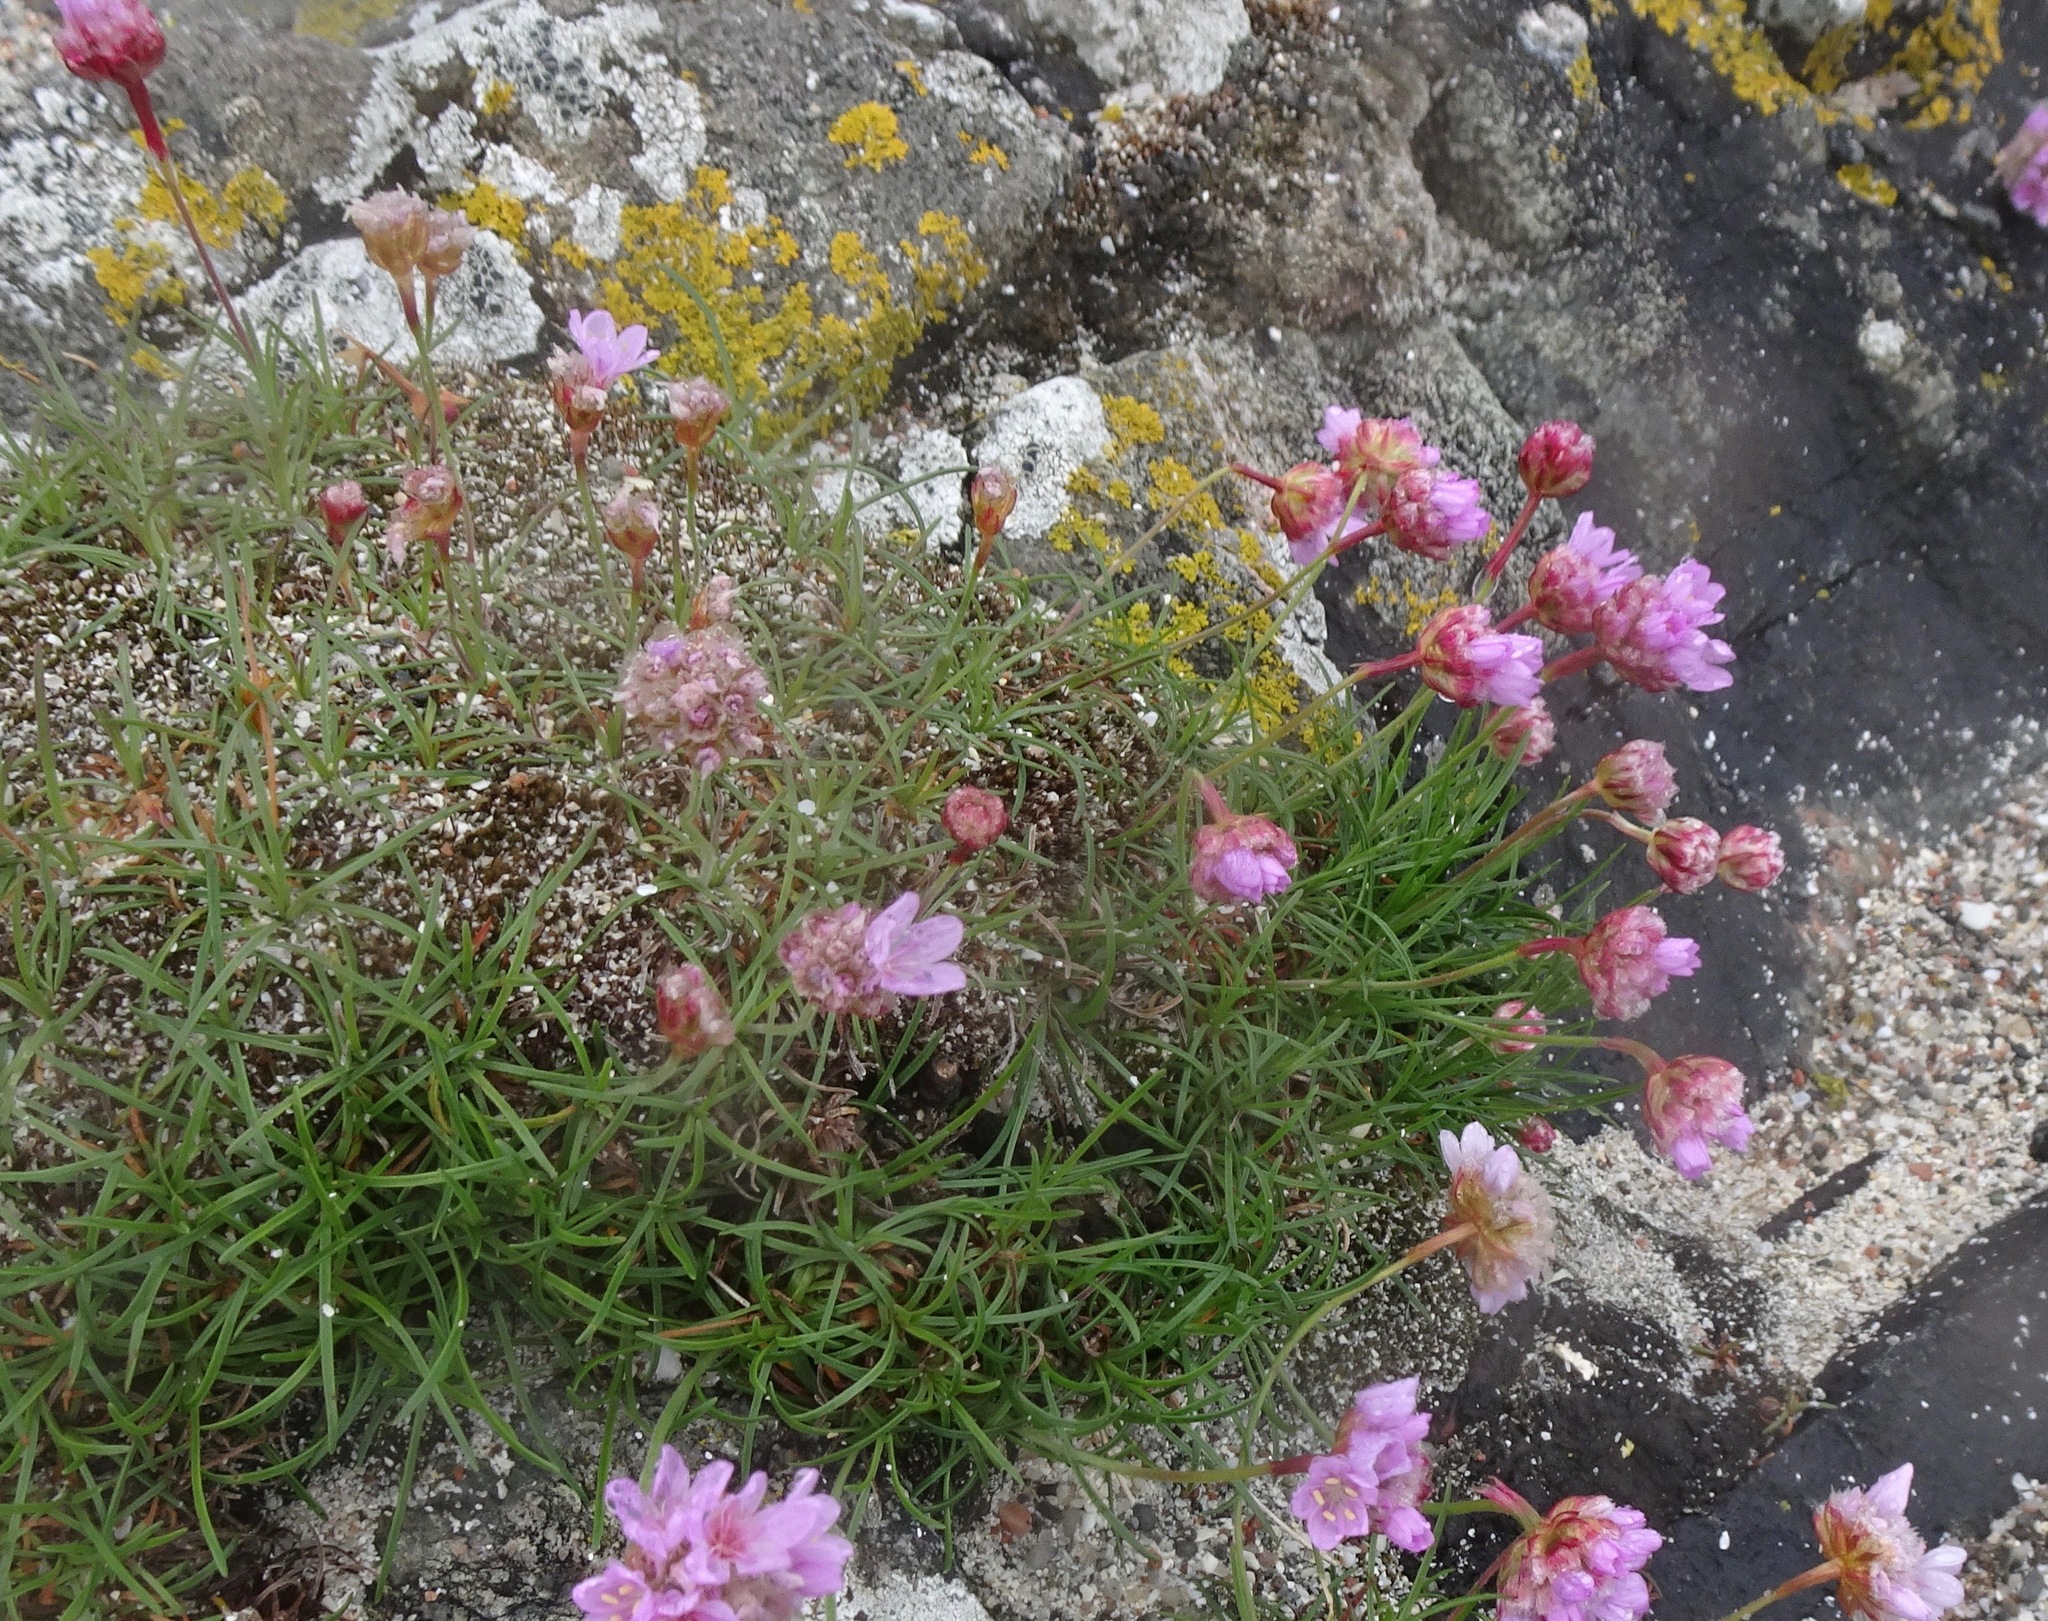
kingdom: Plantae
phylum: Tracheophyta
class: Magnoliopsida
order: Caryophyllales
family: Plumbaginaceae
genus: Armeria
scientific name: Armeria maritima
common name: Thrift
